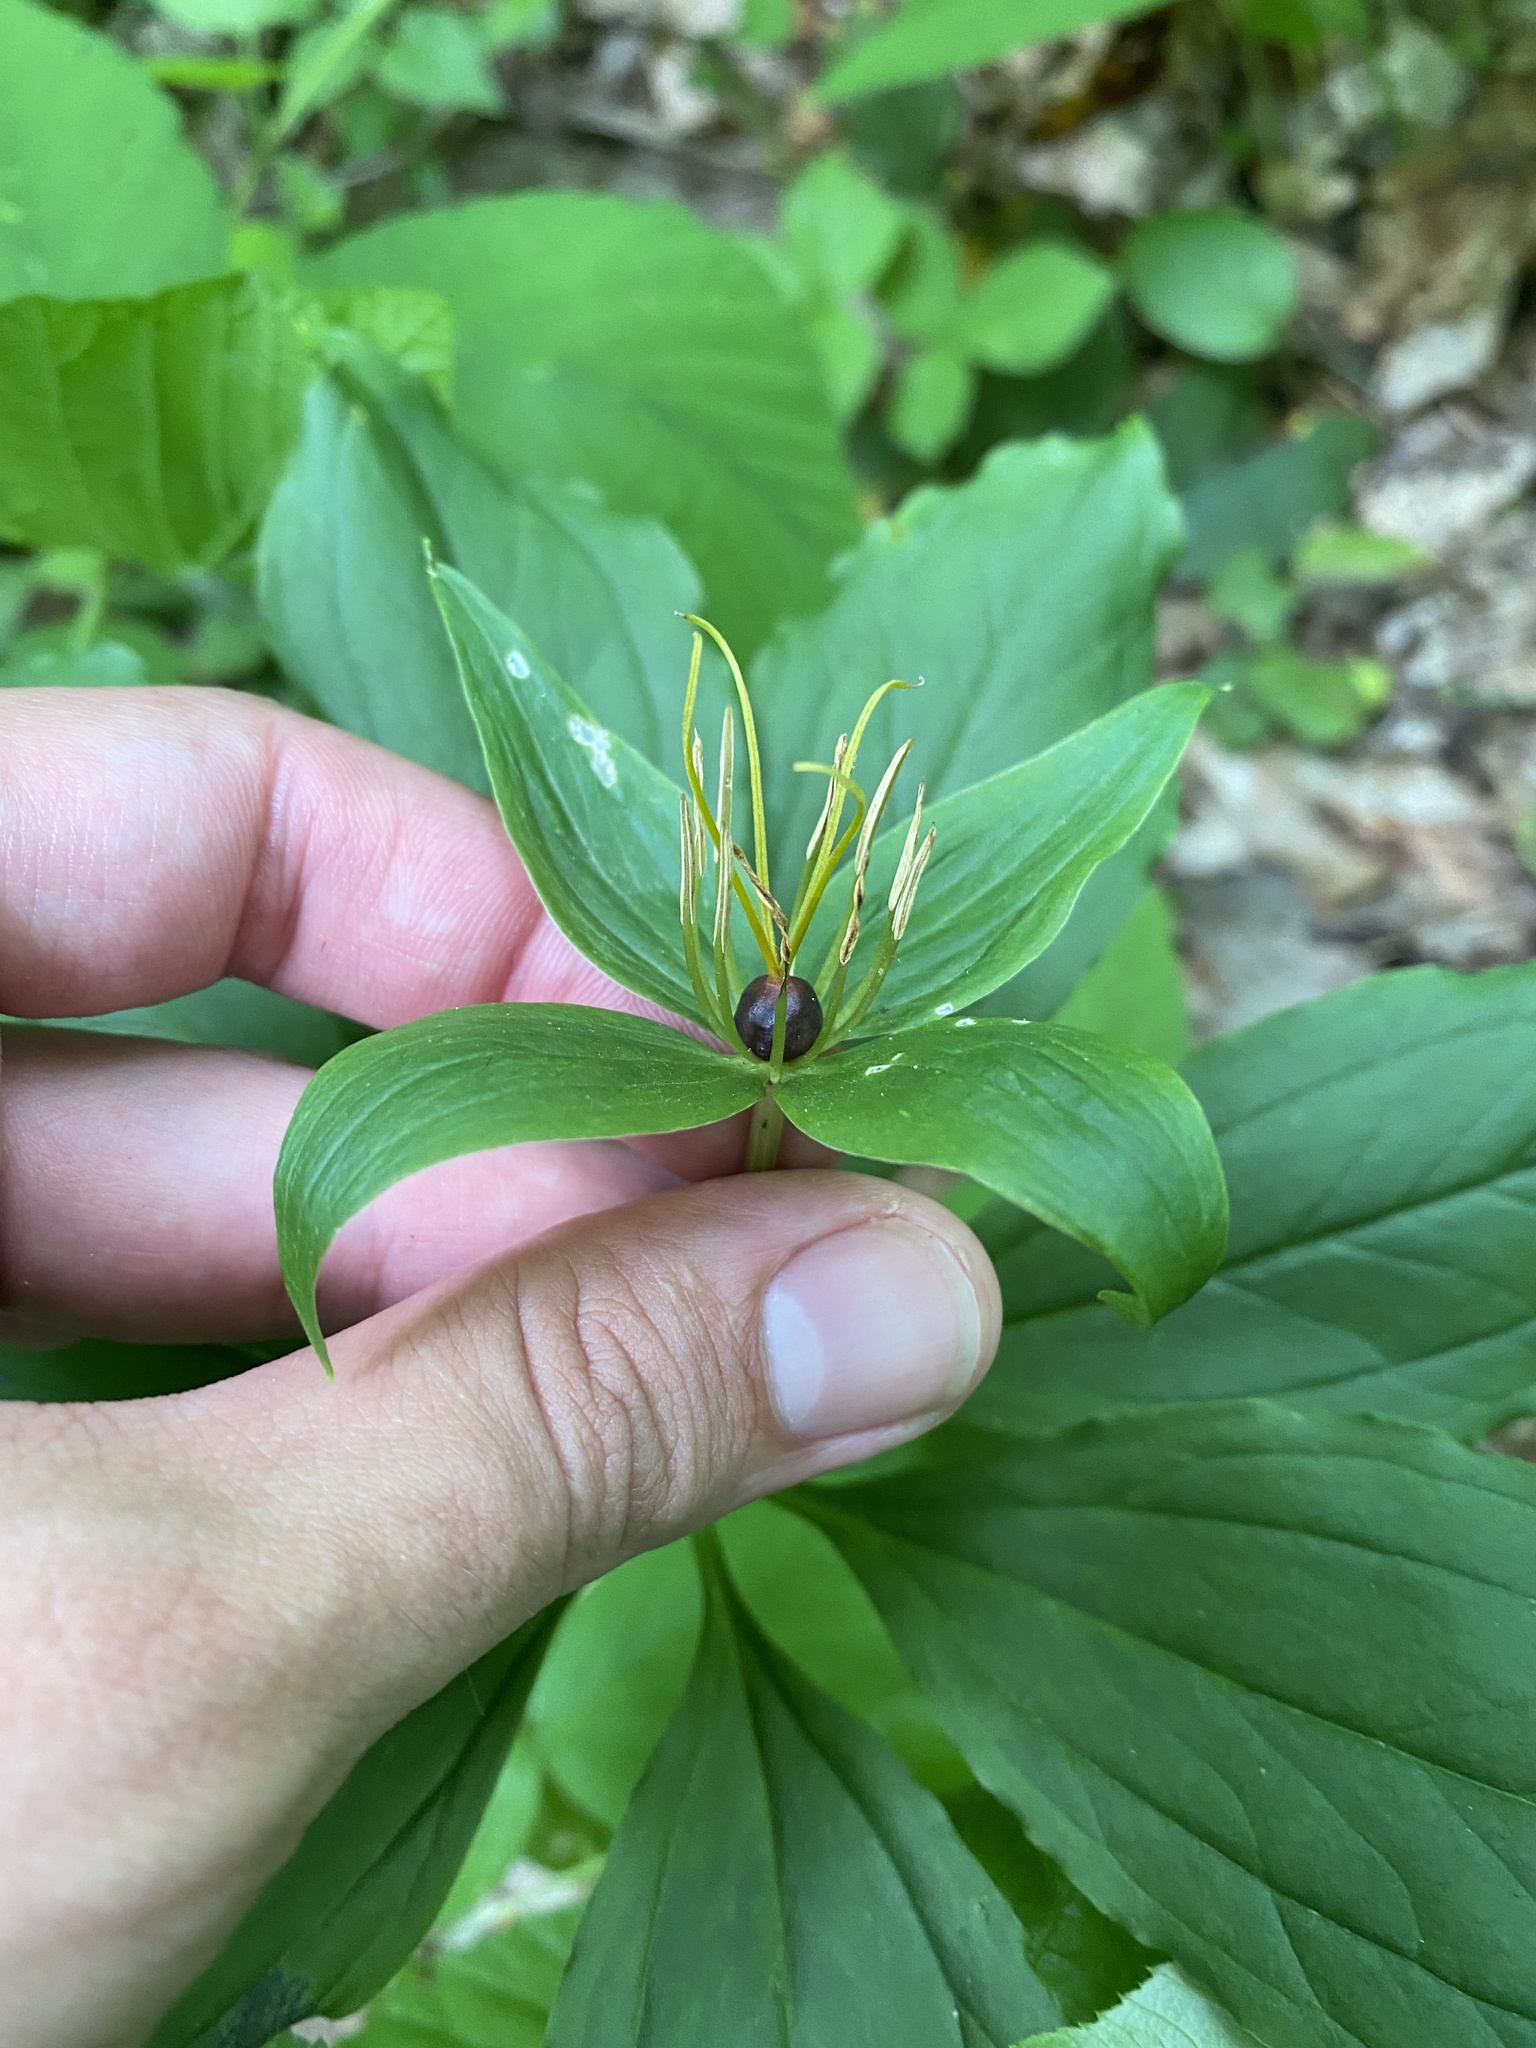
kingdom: Plantae
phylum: Tracheophyta
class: Liliopsida
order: Liliales
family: Melanthiaceae
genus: Paris
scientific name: Paris incompleta
